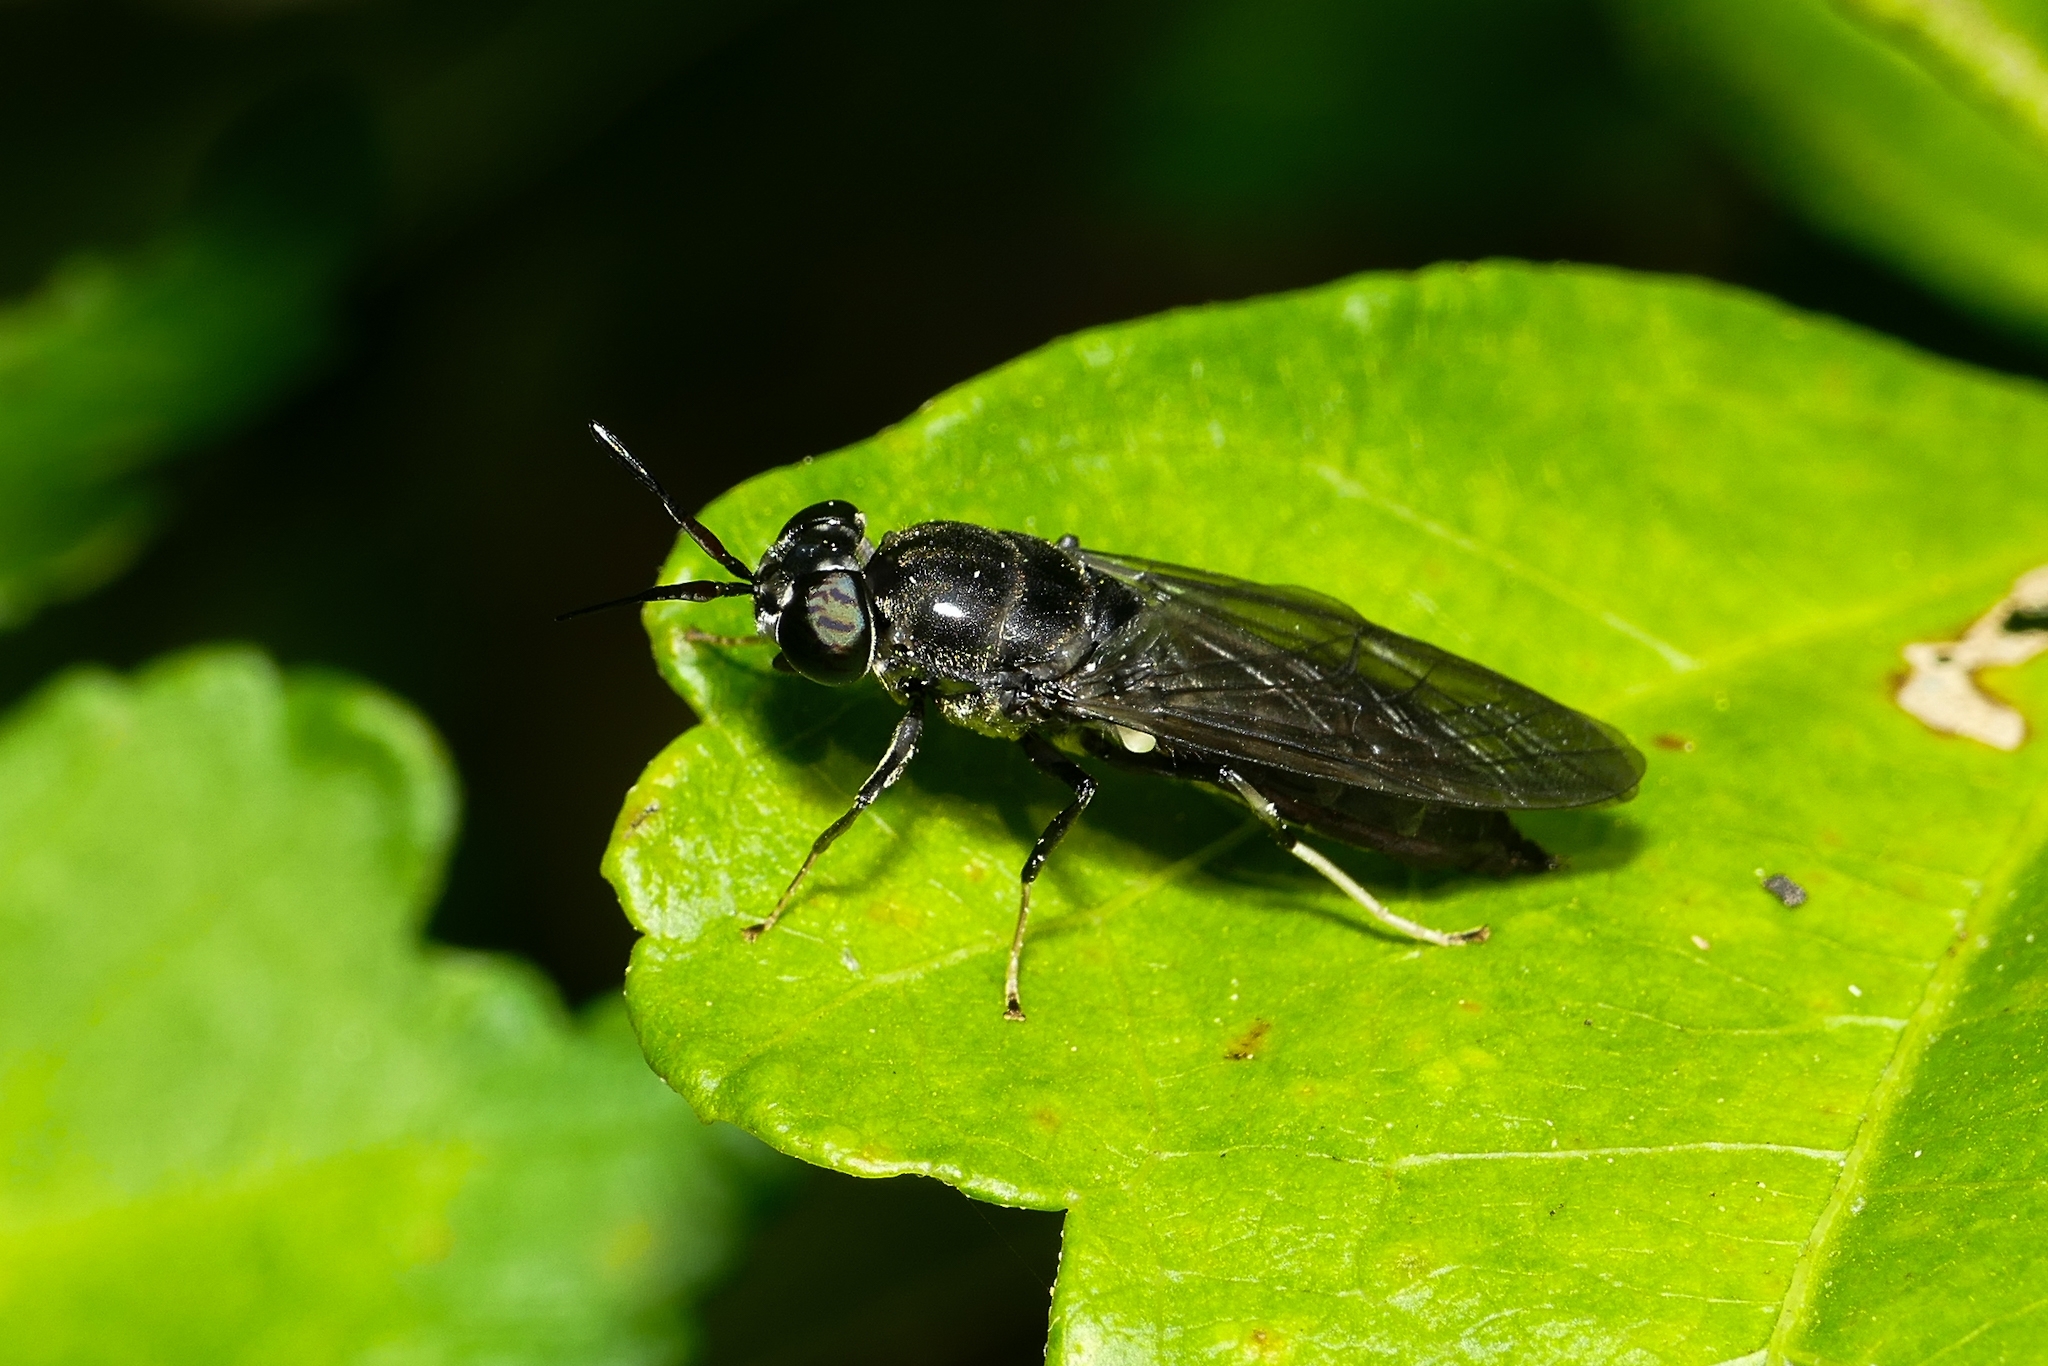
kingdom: Animalia
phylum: Arthropoda
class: Insecta
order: Diptera
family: Stratiomyidae
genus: Hermetia
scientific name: Hermetia illucens
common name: Black soldier fly
